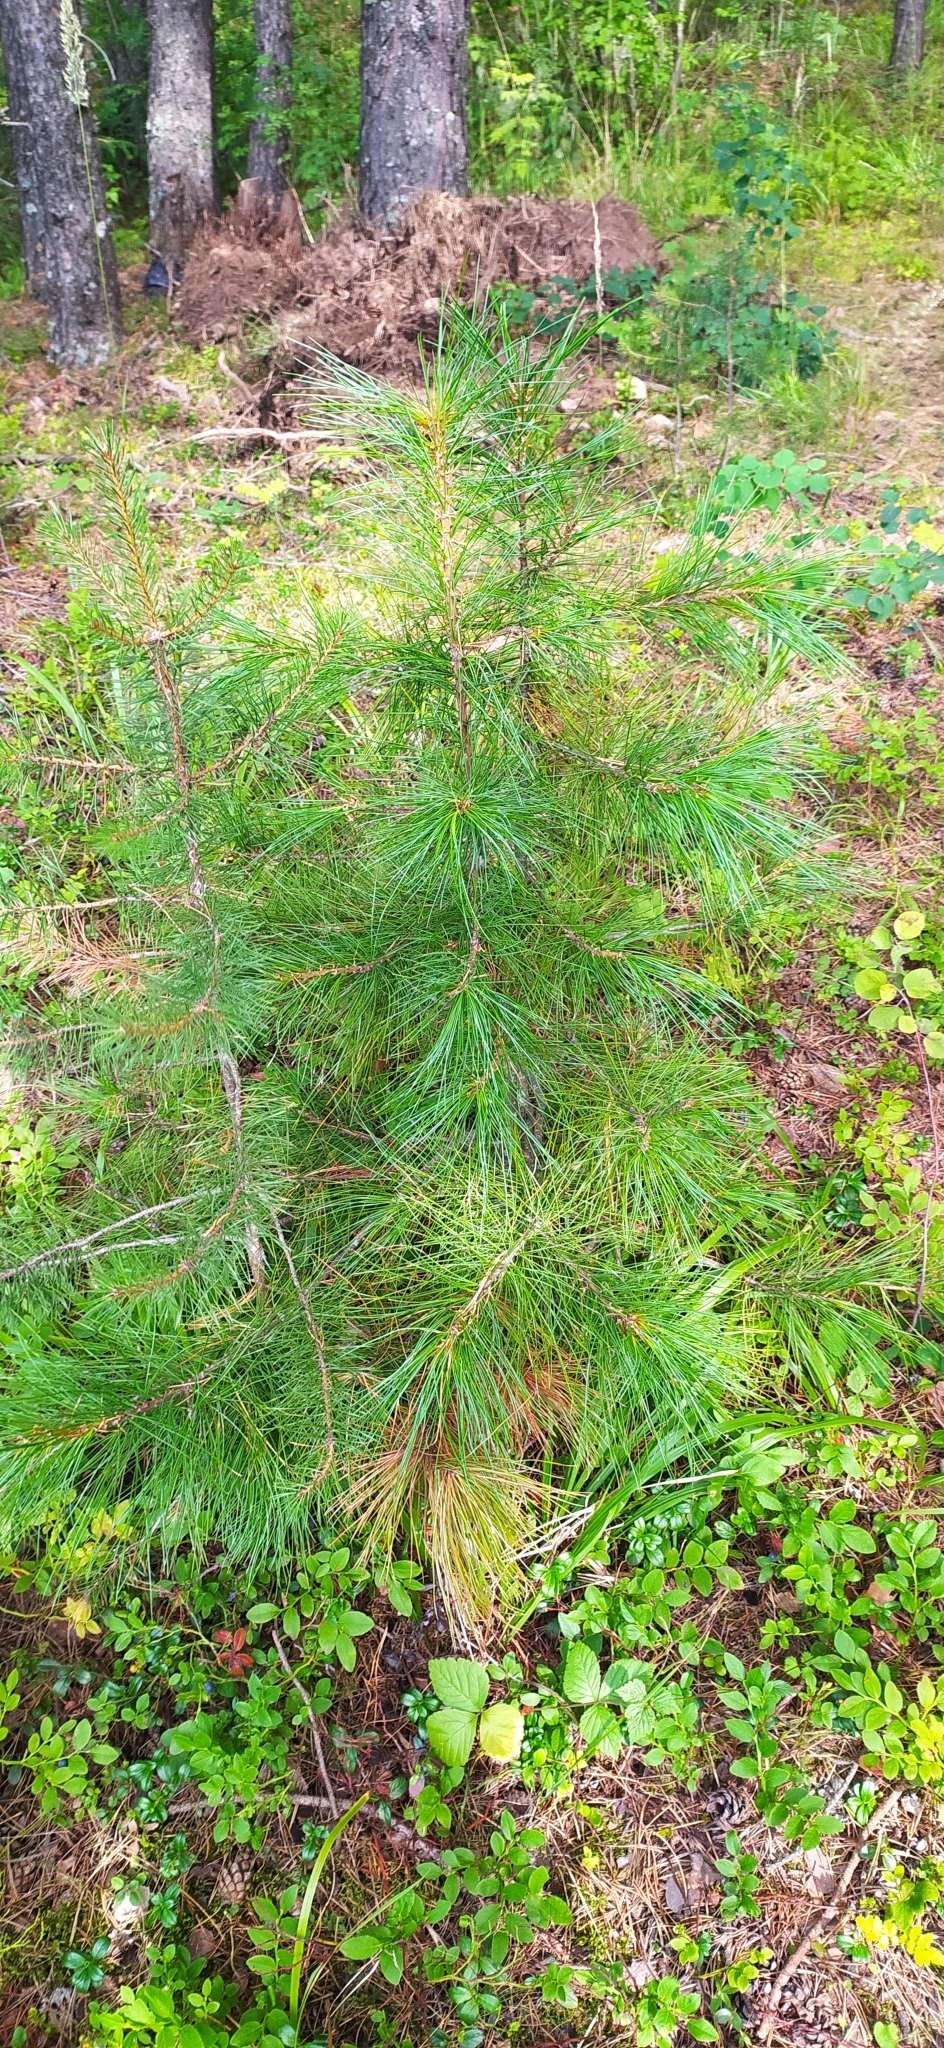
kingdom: Plantae
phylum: Tracheophyta
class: Pinopsida
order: Pinales
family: Pinaceae
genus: Pinus
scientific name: Pinus sibirica
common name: Siberian pine
